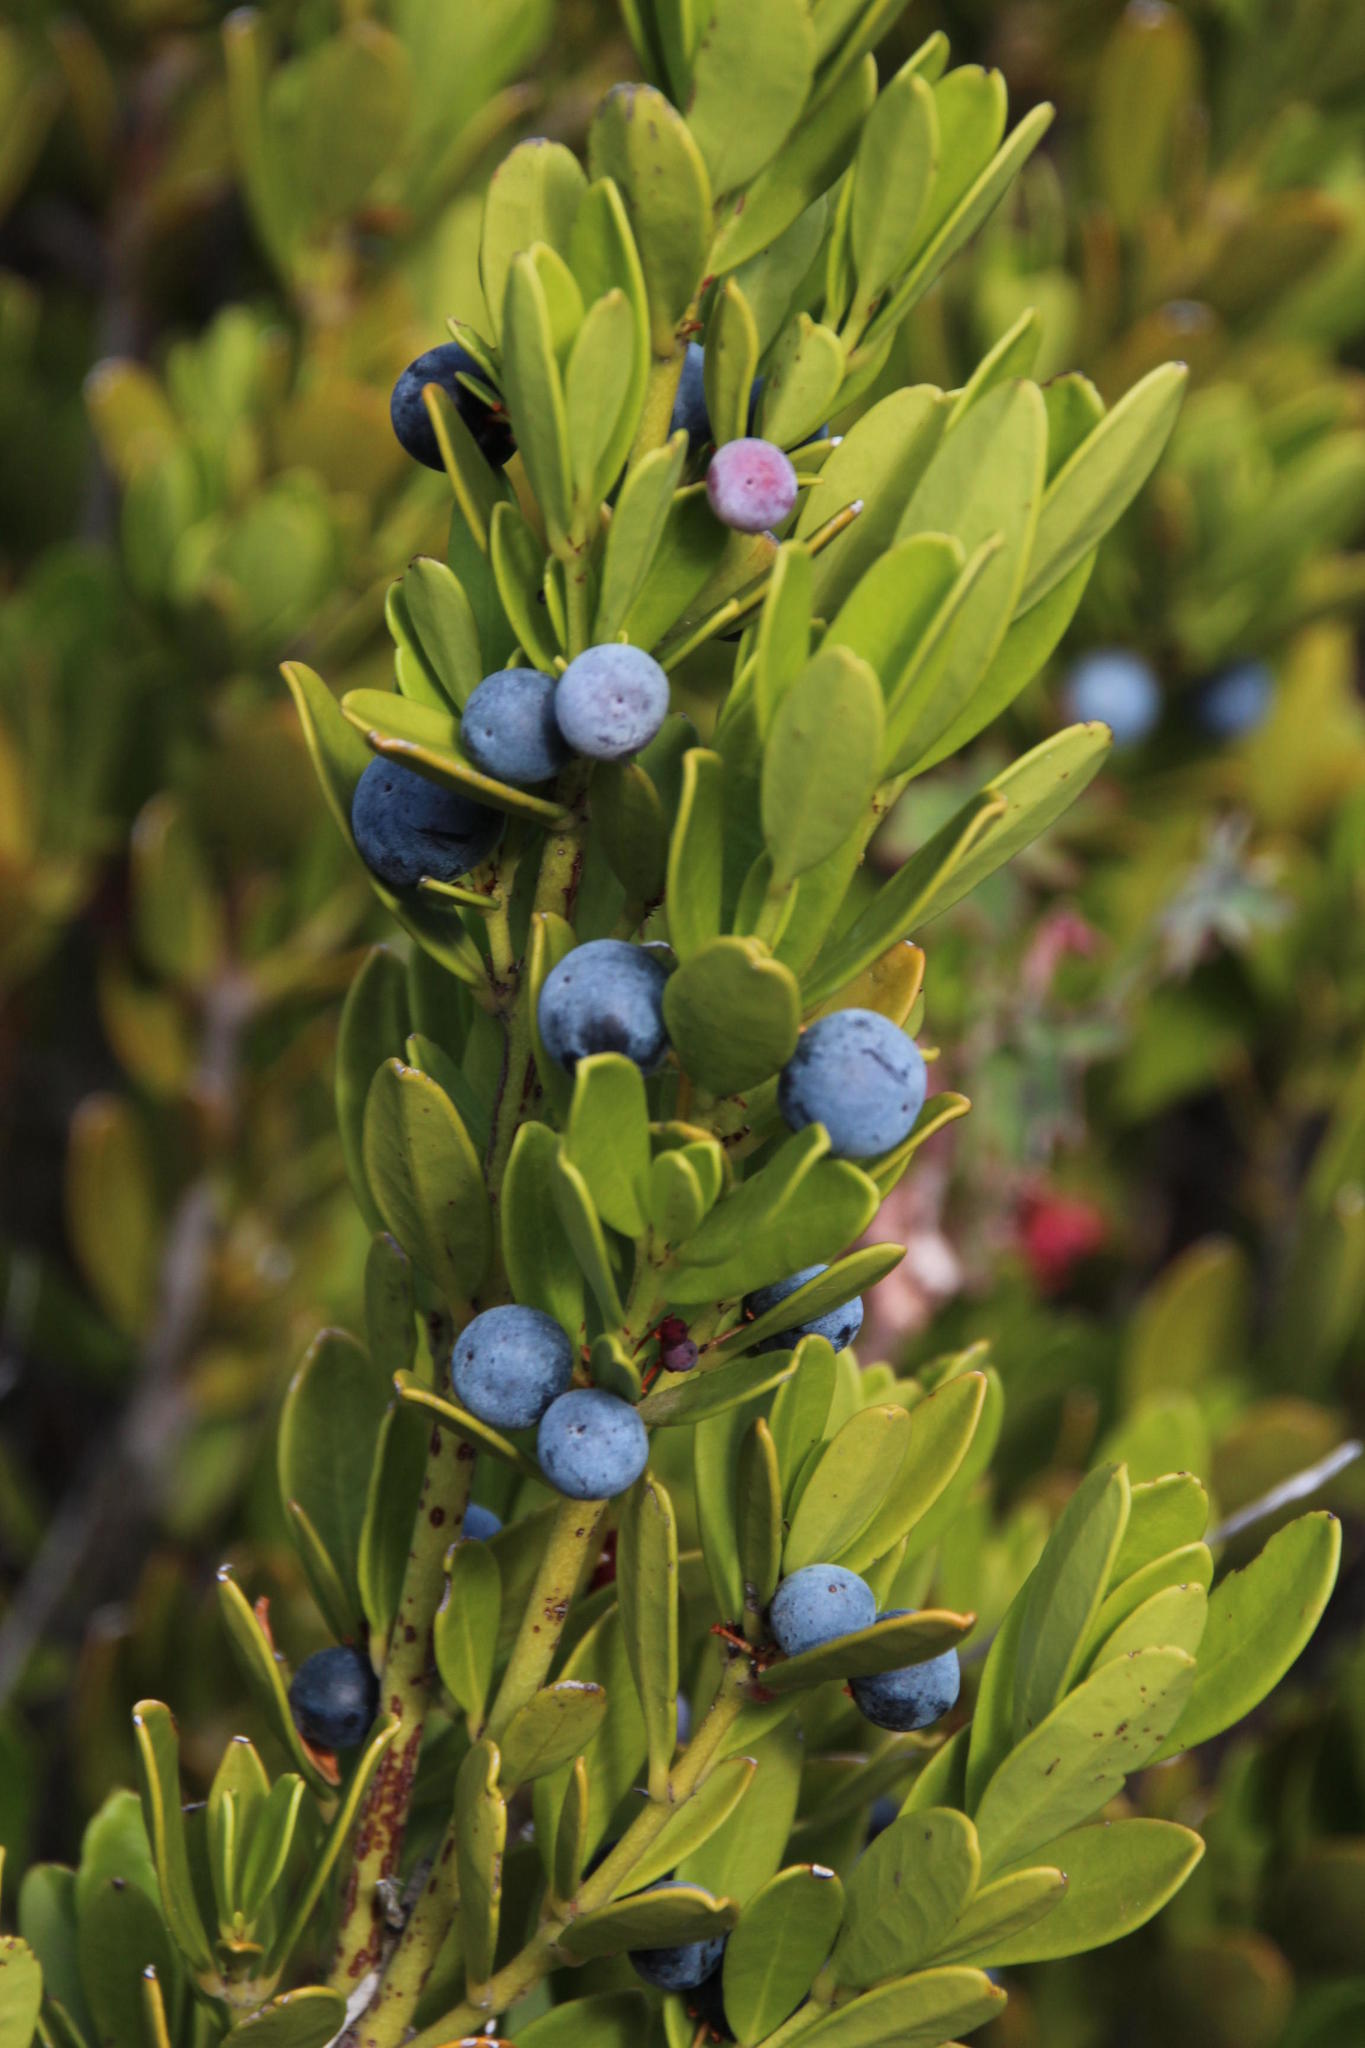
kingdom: Plantae
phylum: Tracheophyta
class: Magnoliopsida
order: Celastrales
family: Celastraceae
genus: Cassine
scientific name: Cassine parvifolia
